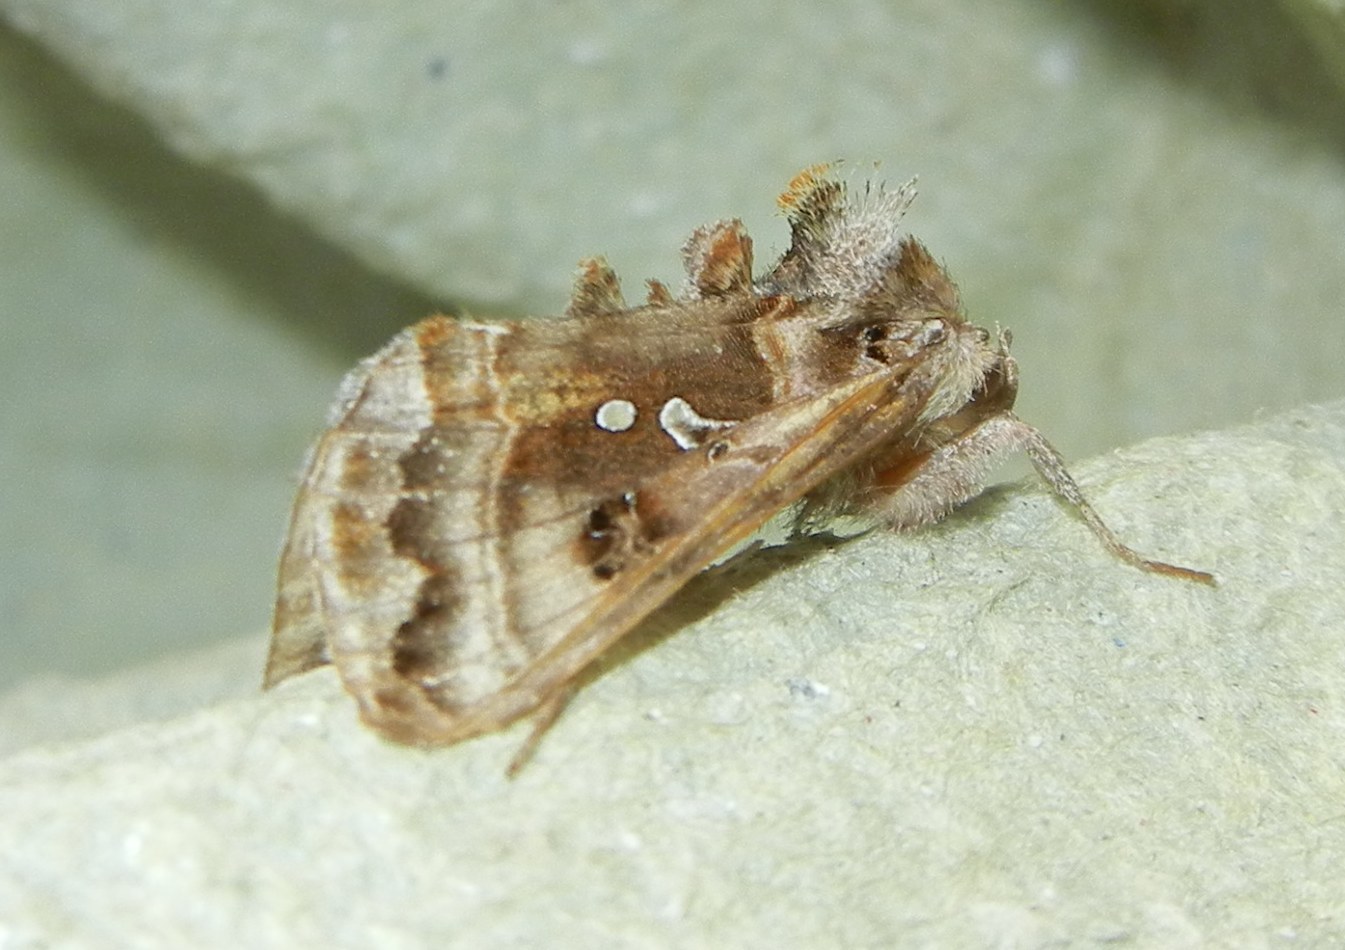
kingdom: Animalia
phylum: Arthropoda
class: Insecta
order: Lepidoptera
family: Noctuidae
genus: Autographa
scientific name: Autographa pulchrina
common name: Beautiful golden y
